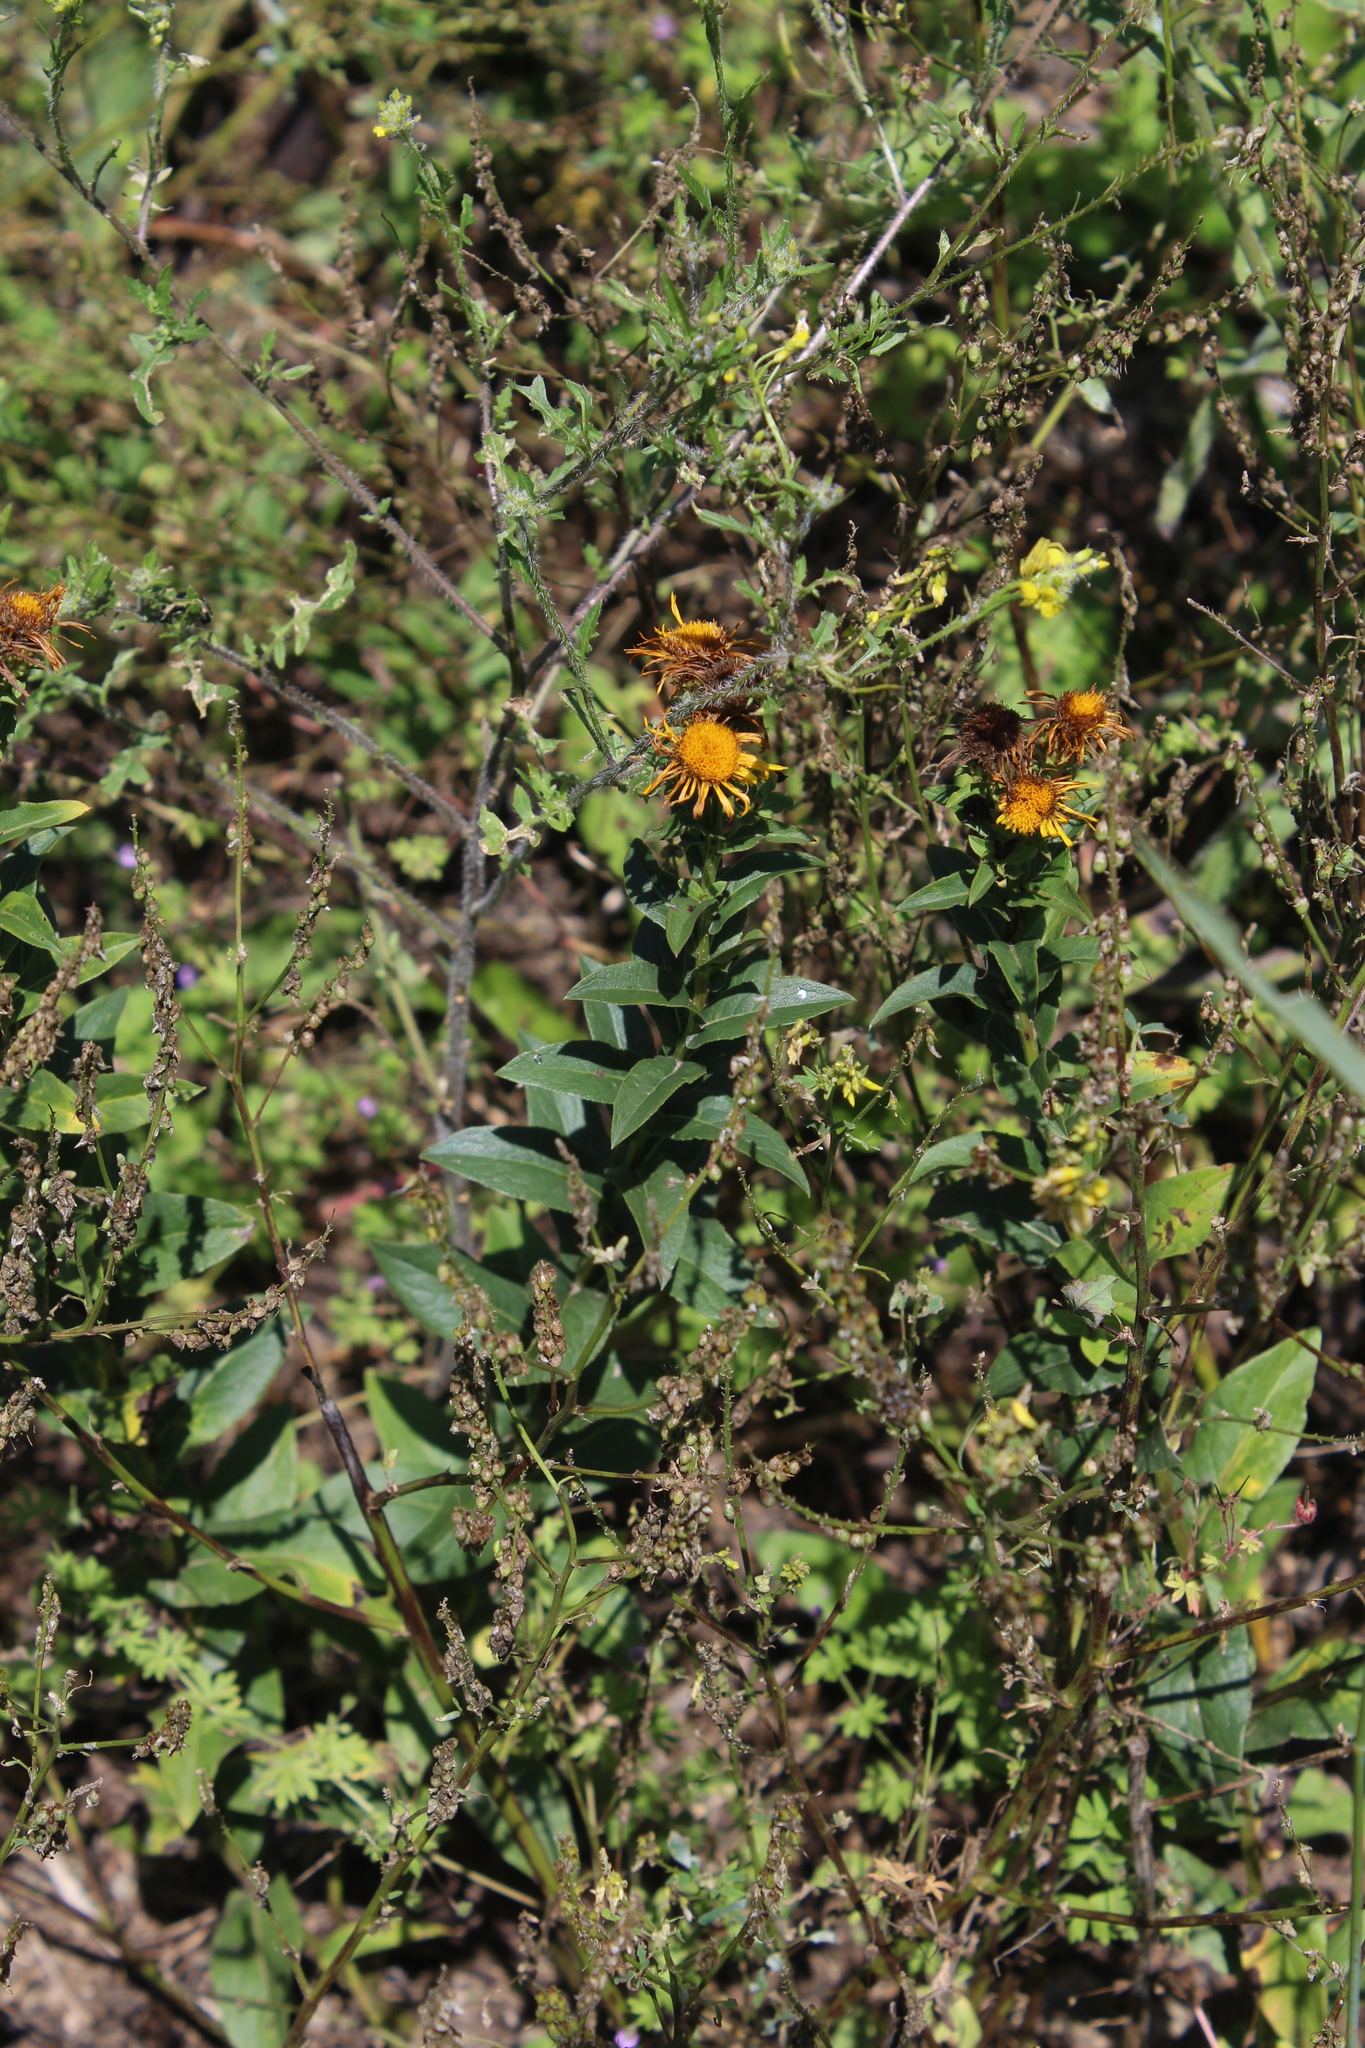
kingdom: Plantae
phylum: Tracheophyta
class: Magnoliopsida
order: Asterales
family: Asteraceae
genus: Pentanema
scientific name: Pentanema asperum
